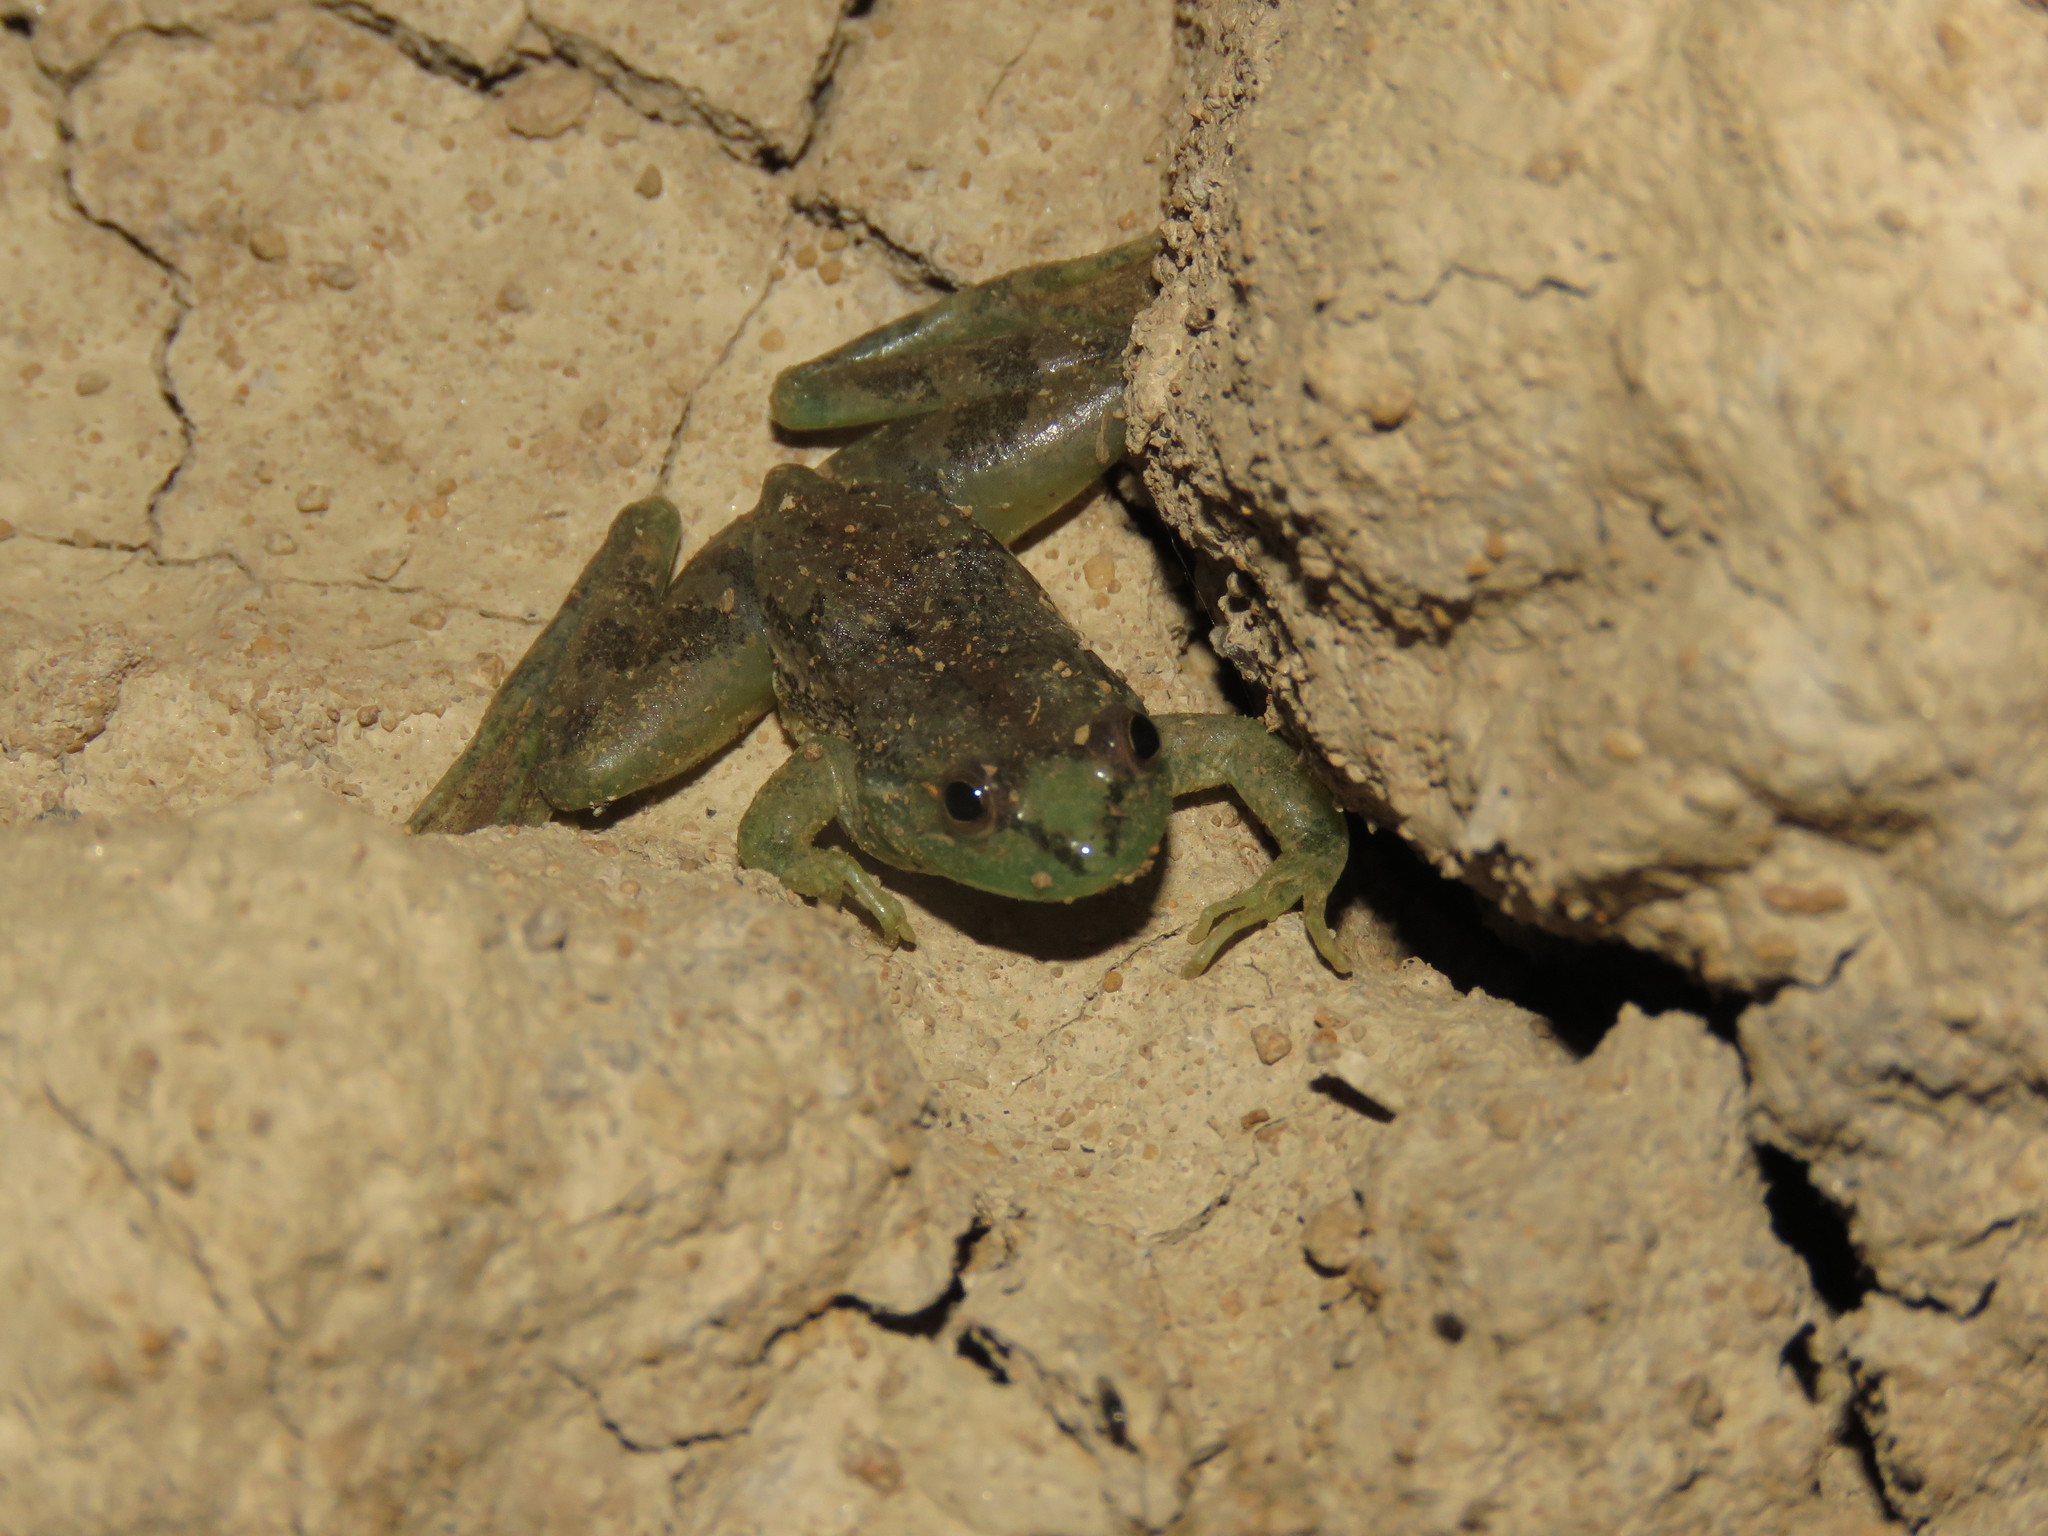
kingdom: Animalia
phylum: Chordata
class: Amphibia
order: Anura
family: Hylidae
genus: Lysapsus
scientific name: Lysapsus bolivianus
